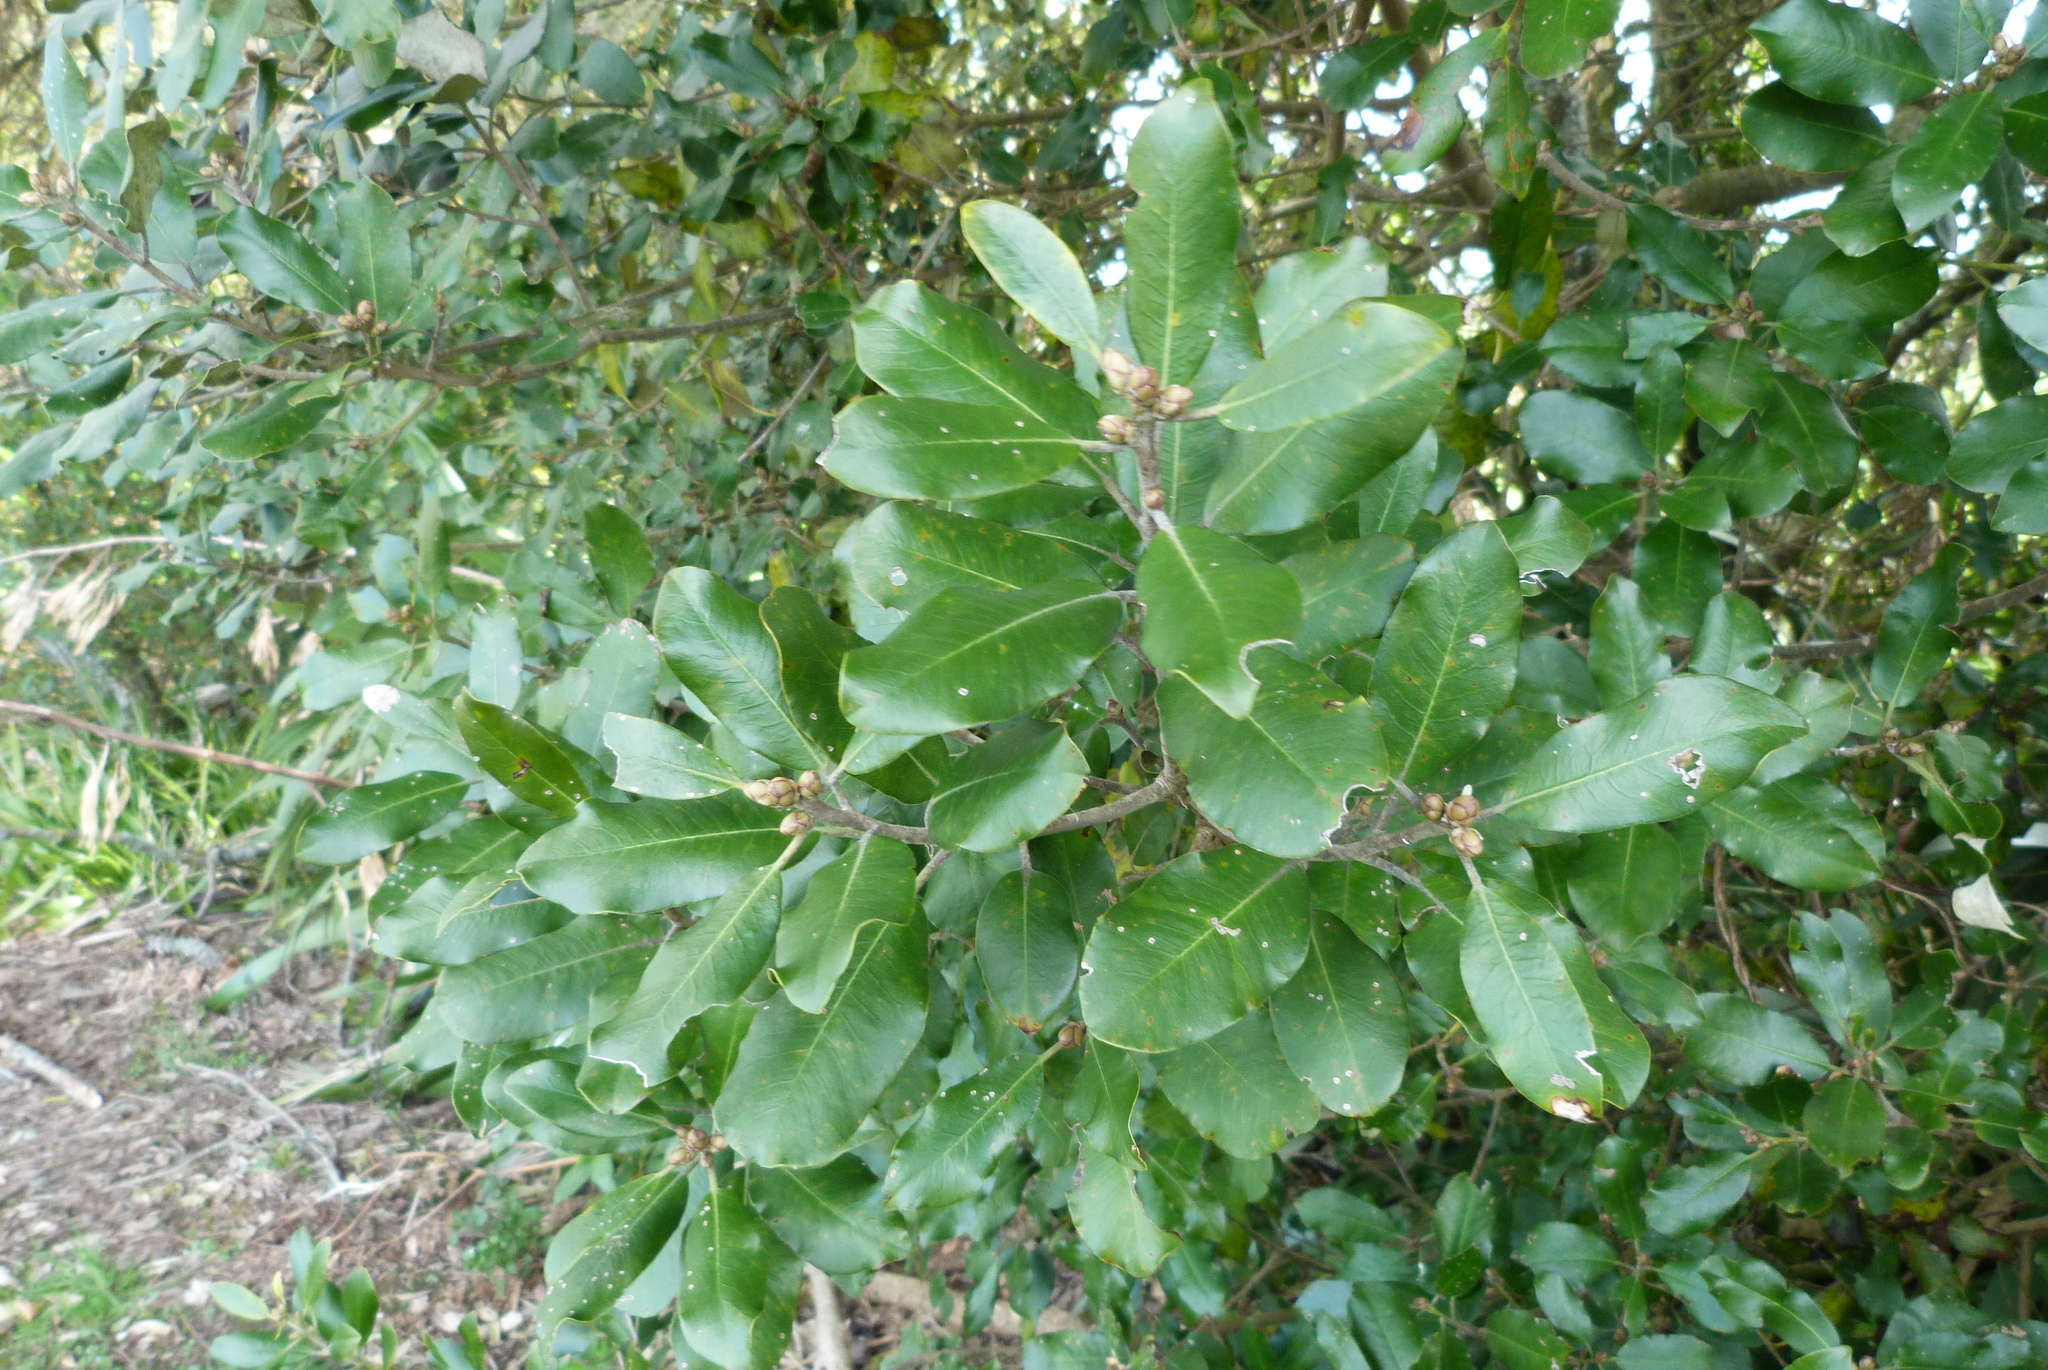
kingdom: Plantae
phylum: Tracheophyta
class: Magnoliopsida
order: Apiales
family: Pittosporaceae
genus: Pittosporum
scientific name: Pittosporum ralphii
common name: Ralph's desertwillow
